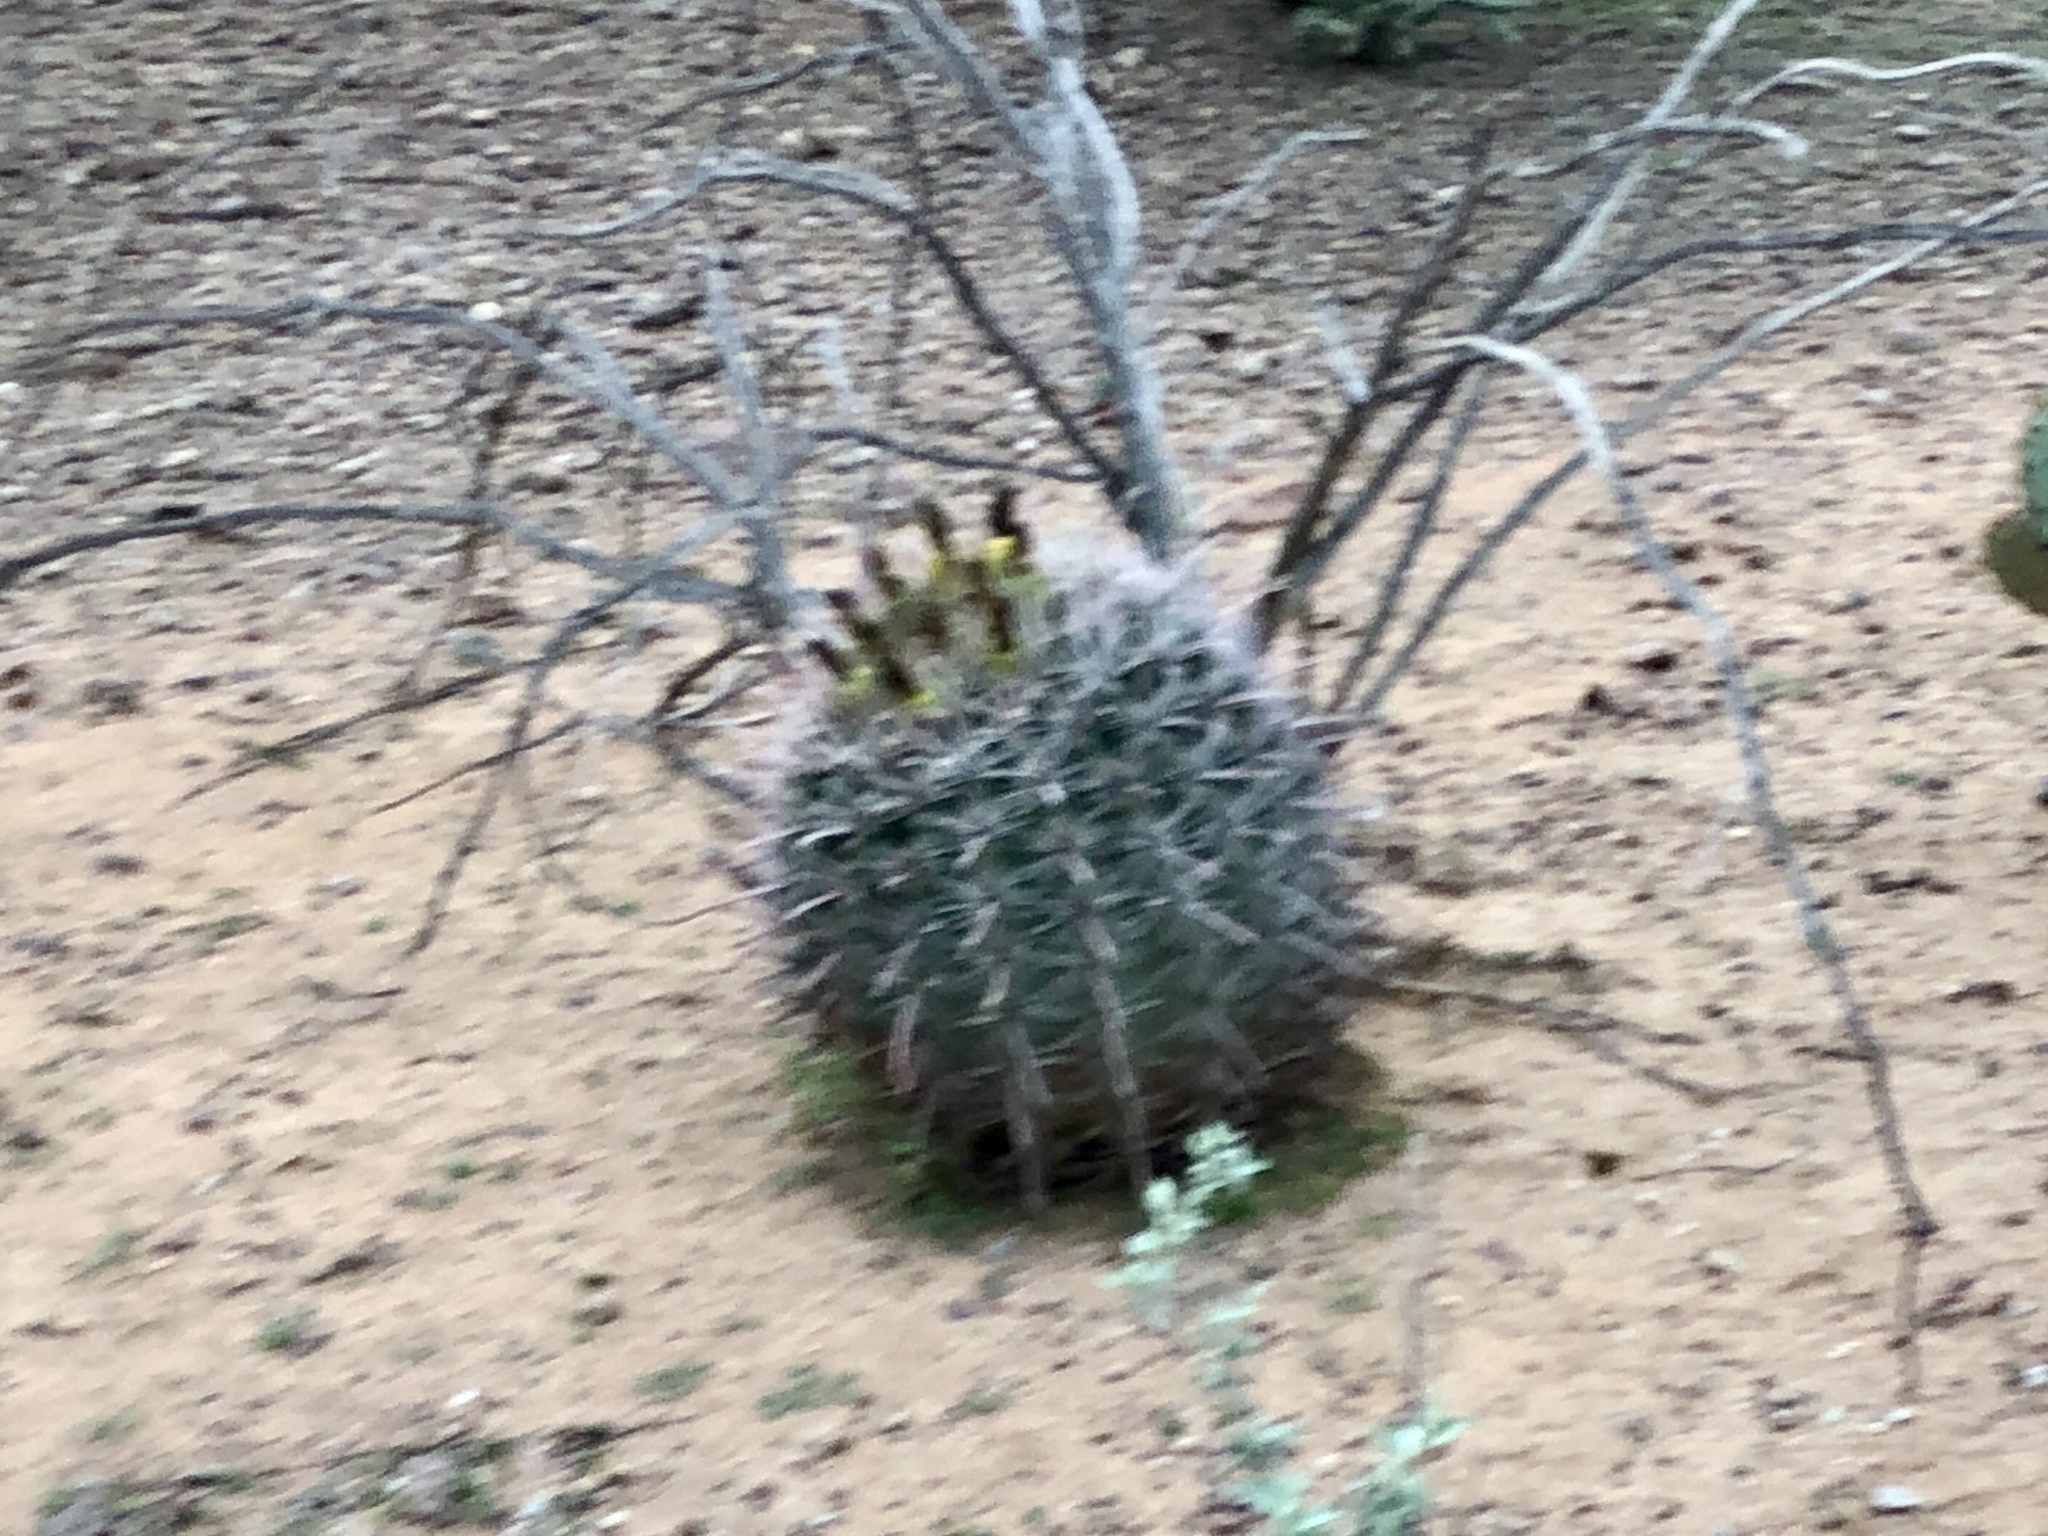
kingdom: Plantae
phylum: Tracheophyta
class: Magnoliopsida
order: Caryophyllales
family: Cactaceae
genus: Ferocactus
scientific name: Ferocactus wislizeni
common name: Candy barrel cactus
